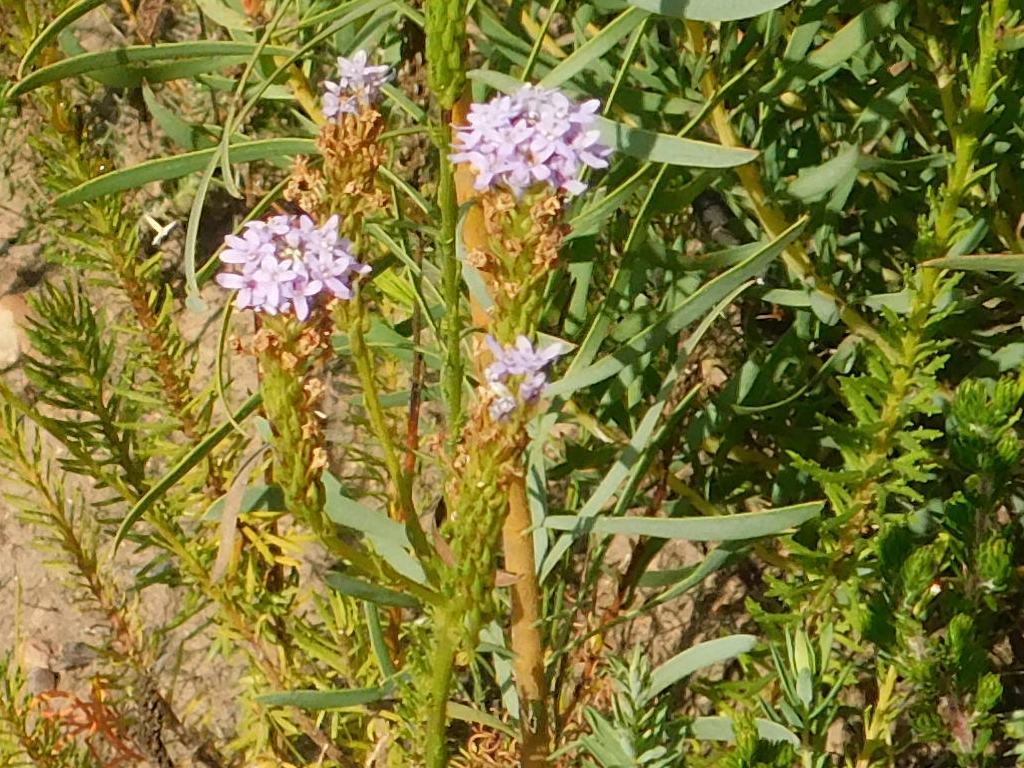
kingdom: Plantae
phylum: Tracheophyta
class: Magnoliopsida
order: Lamiales
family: Scrophulariaceae
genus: Pseudoselago
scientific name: Pseudoselago spuria
